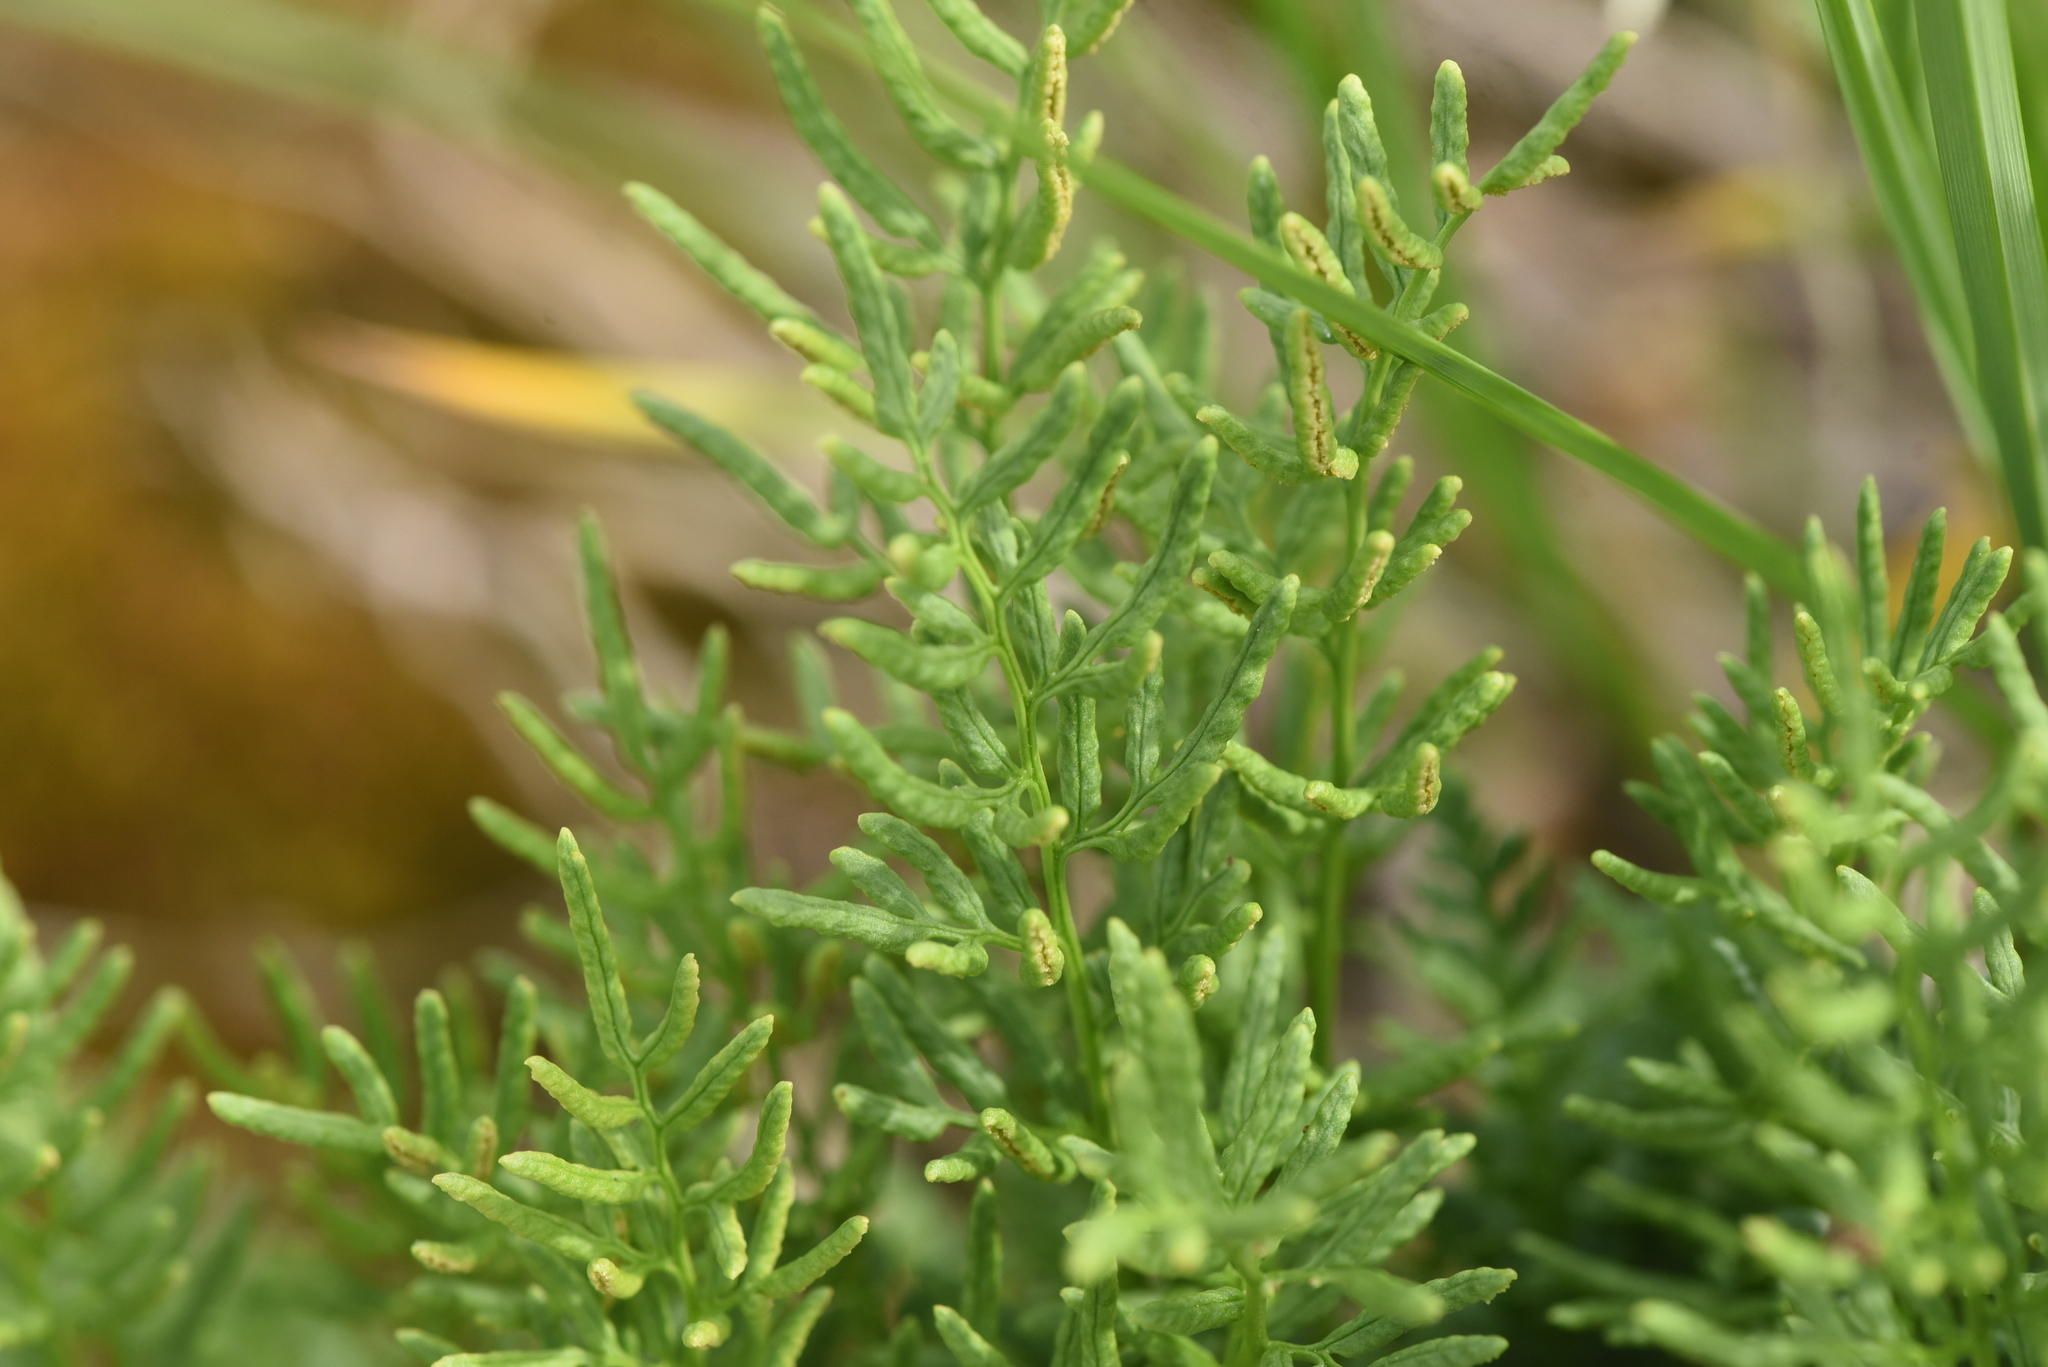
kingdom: Plantae
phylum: Tracheophyta
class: Polypodiopsida
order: Polypodiales
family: Pteridaceae
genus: Cryptogramma
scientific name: Cryptogramma acrostichoides
